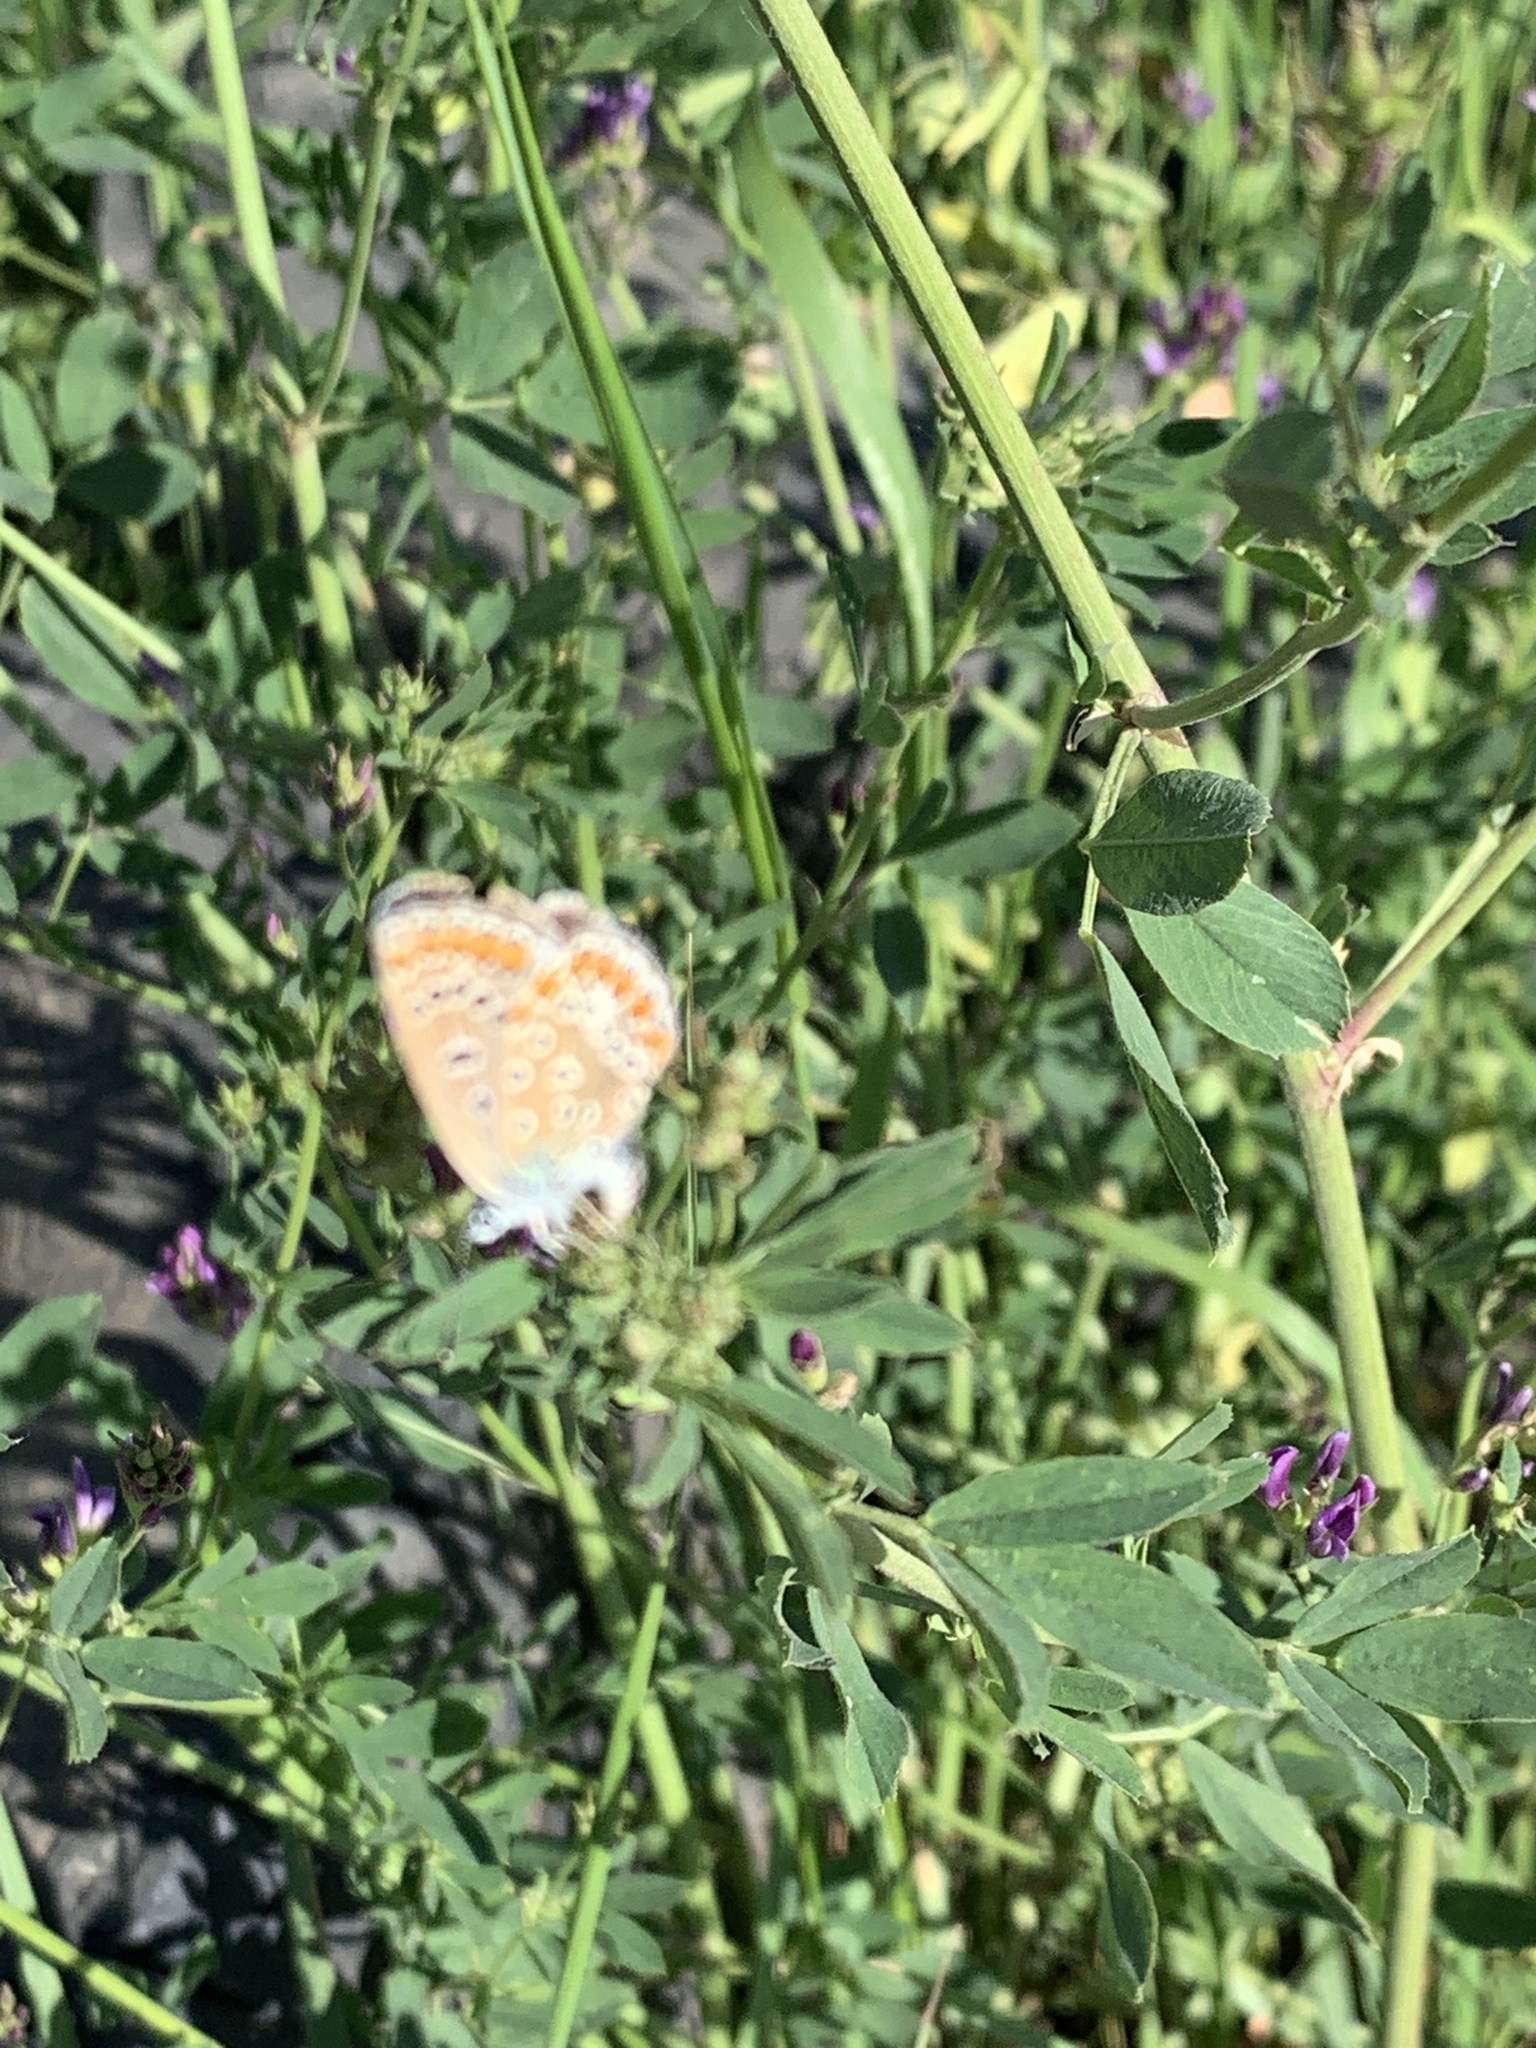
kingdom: Animalia
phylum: Arthropoda
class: Insecta
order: Lepidoptera
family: Lycaenidae
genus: Polyommatus
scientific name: Polyommatus icarus
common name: Common blue
